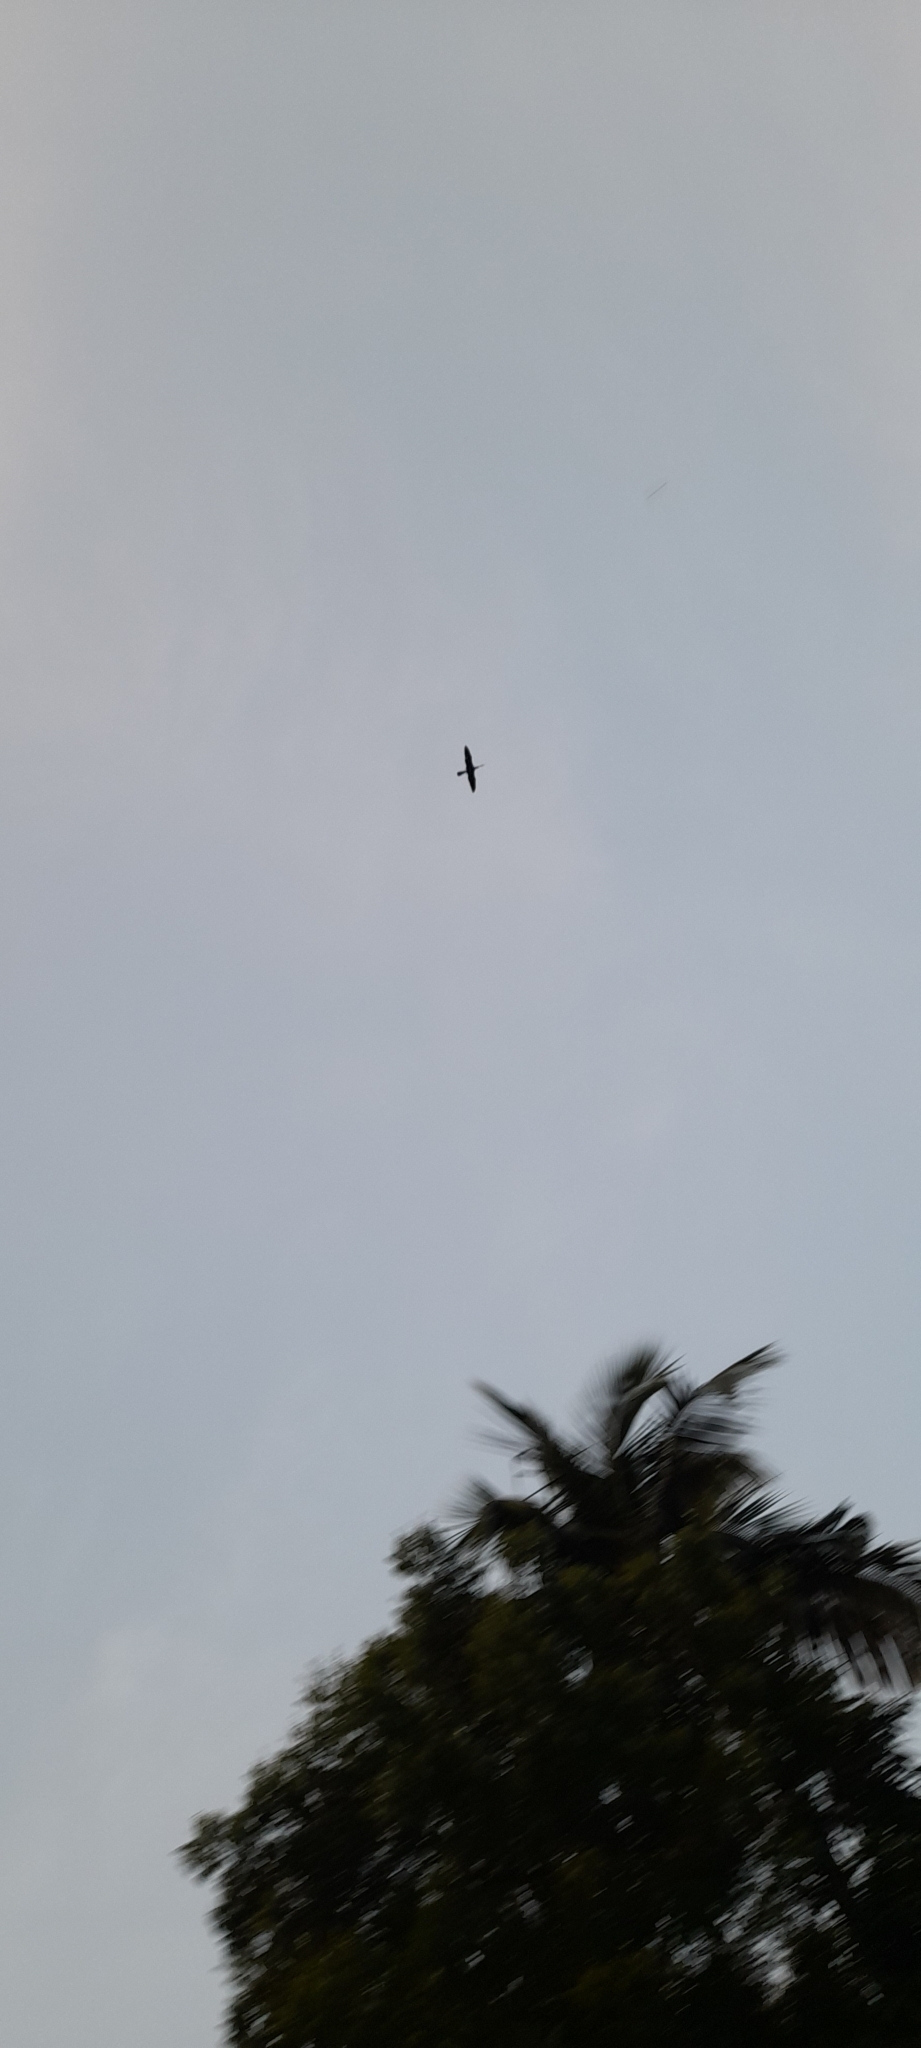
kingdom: Animalia
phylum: Chordata
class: Aves
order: Suliformes
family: Anhingidae
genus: Anhinga
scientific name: Anhinga melanogaster
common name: Oriental darter
